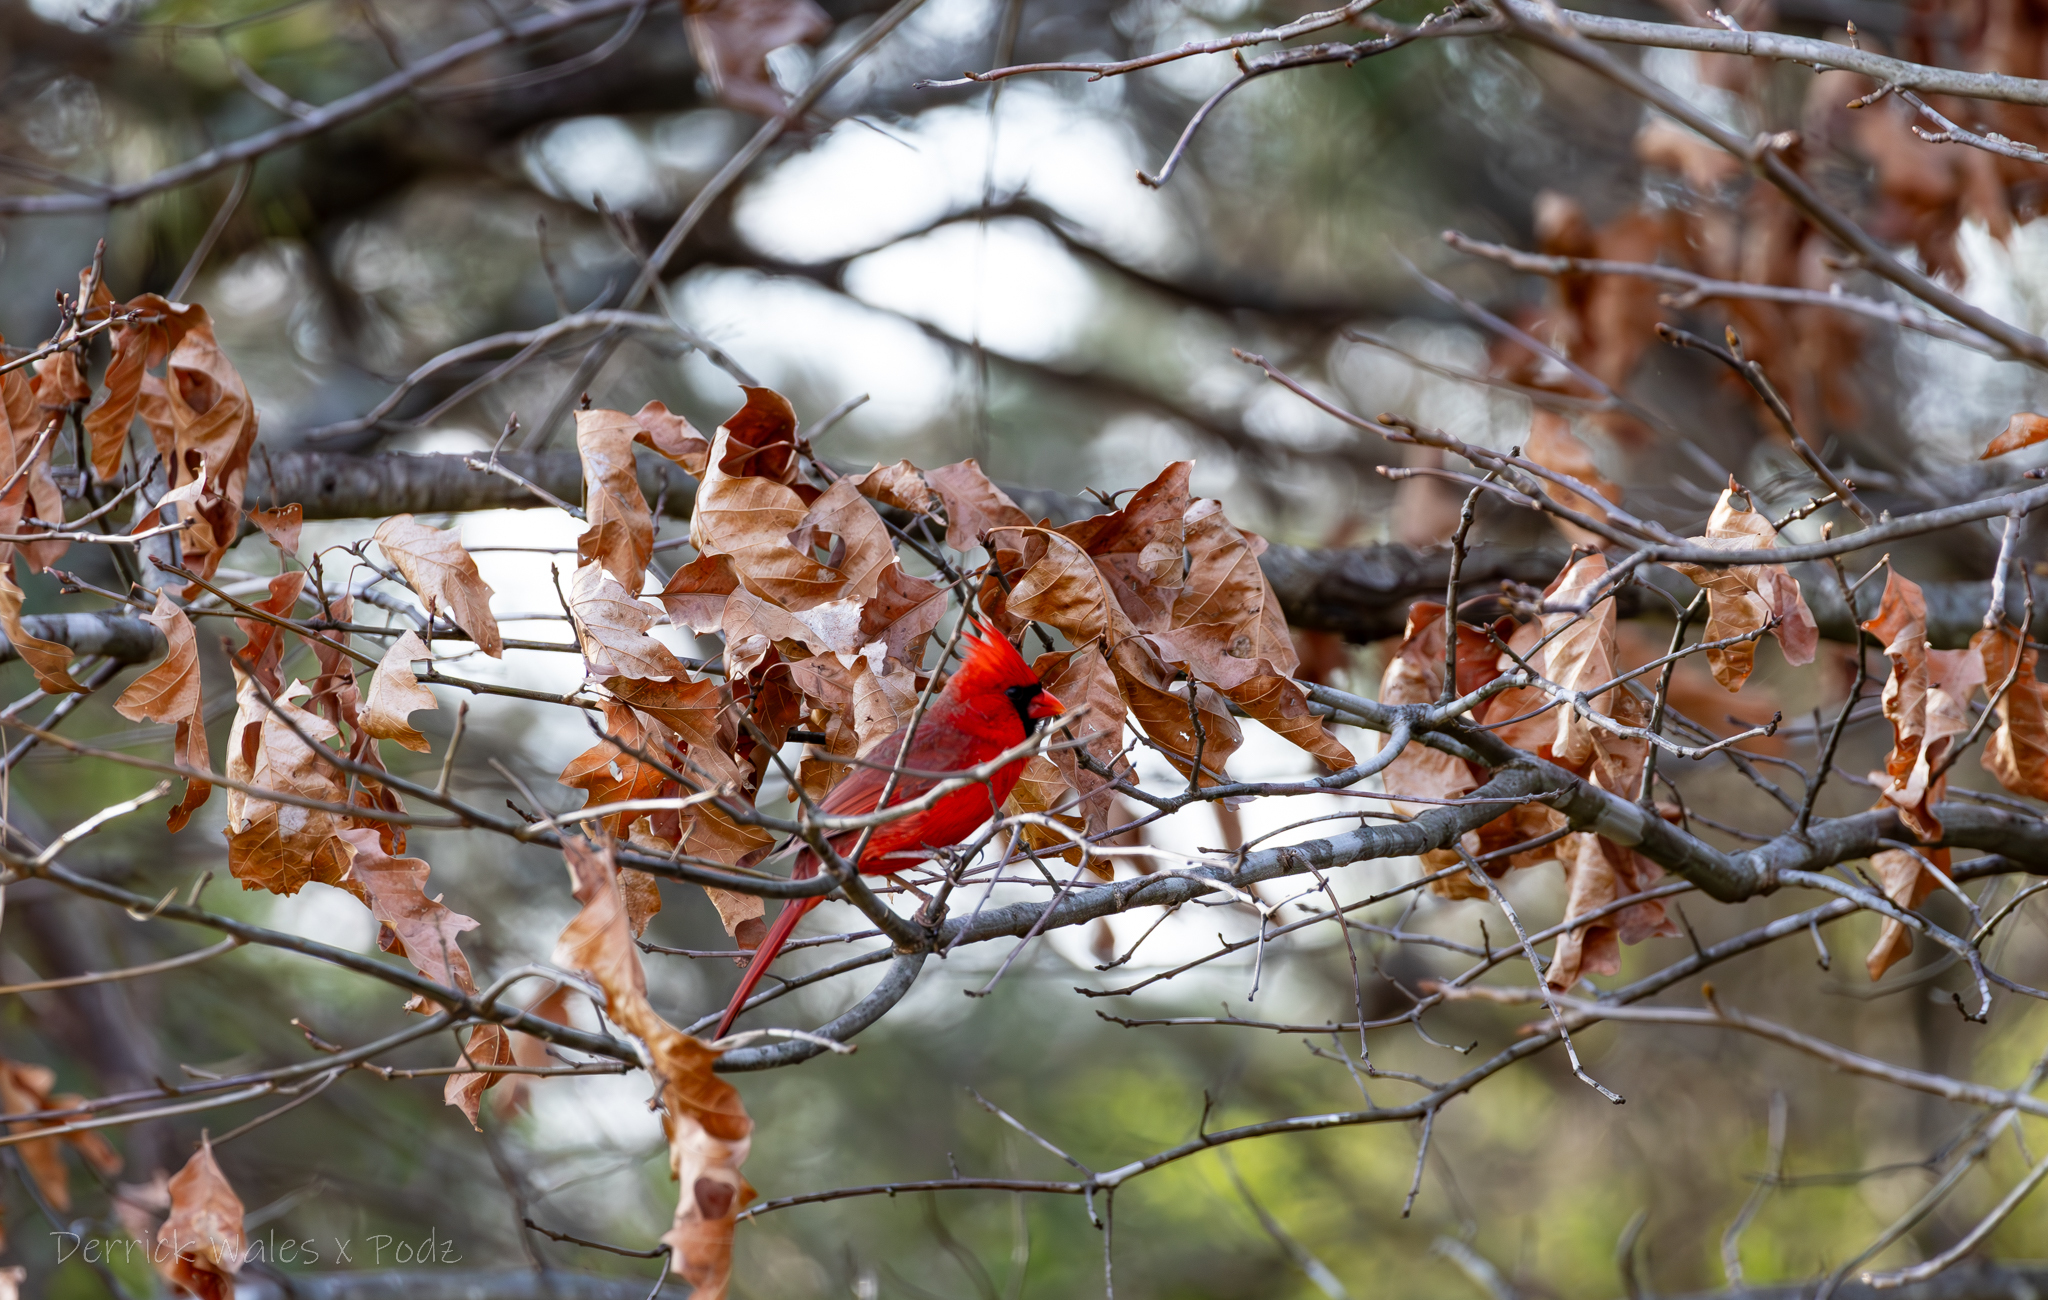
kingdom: Animalia
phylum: Chordata
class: Aves
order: Passeriformes
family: Cardinalidae
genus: Cardinalis
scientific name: Cardinalis cardinalis
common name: Northern cardinal
